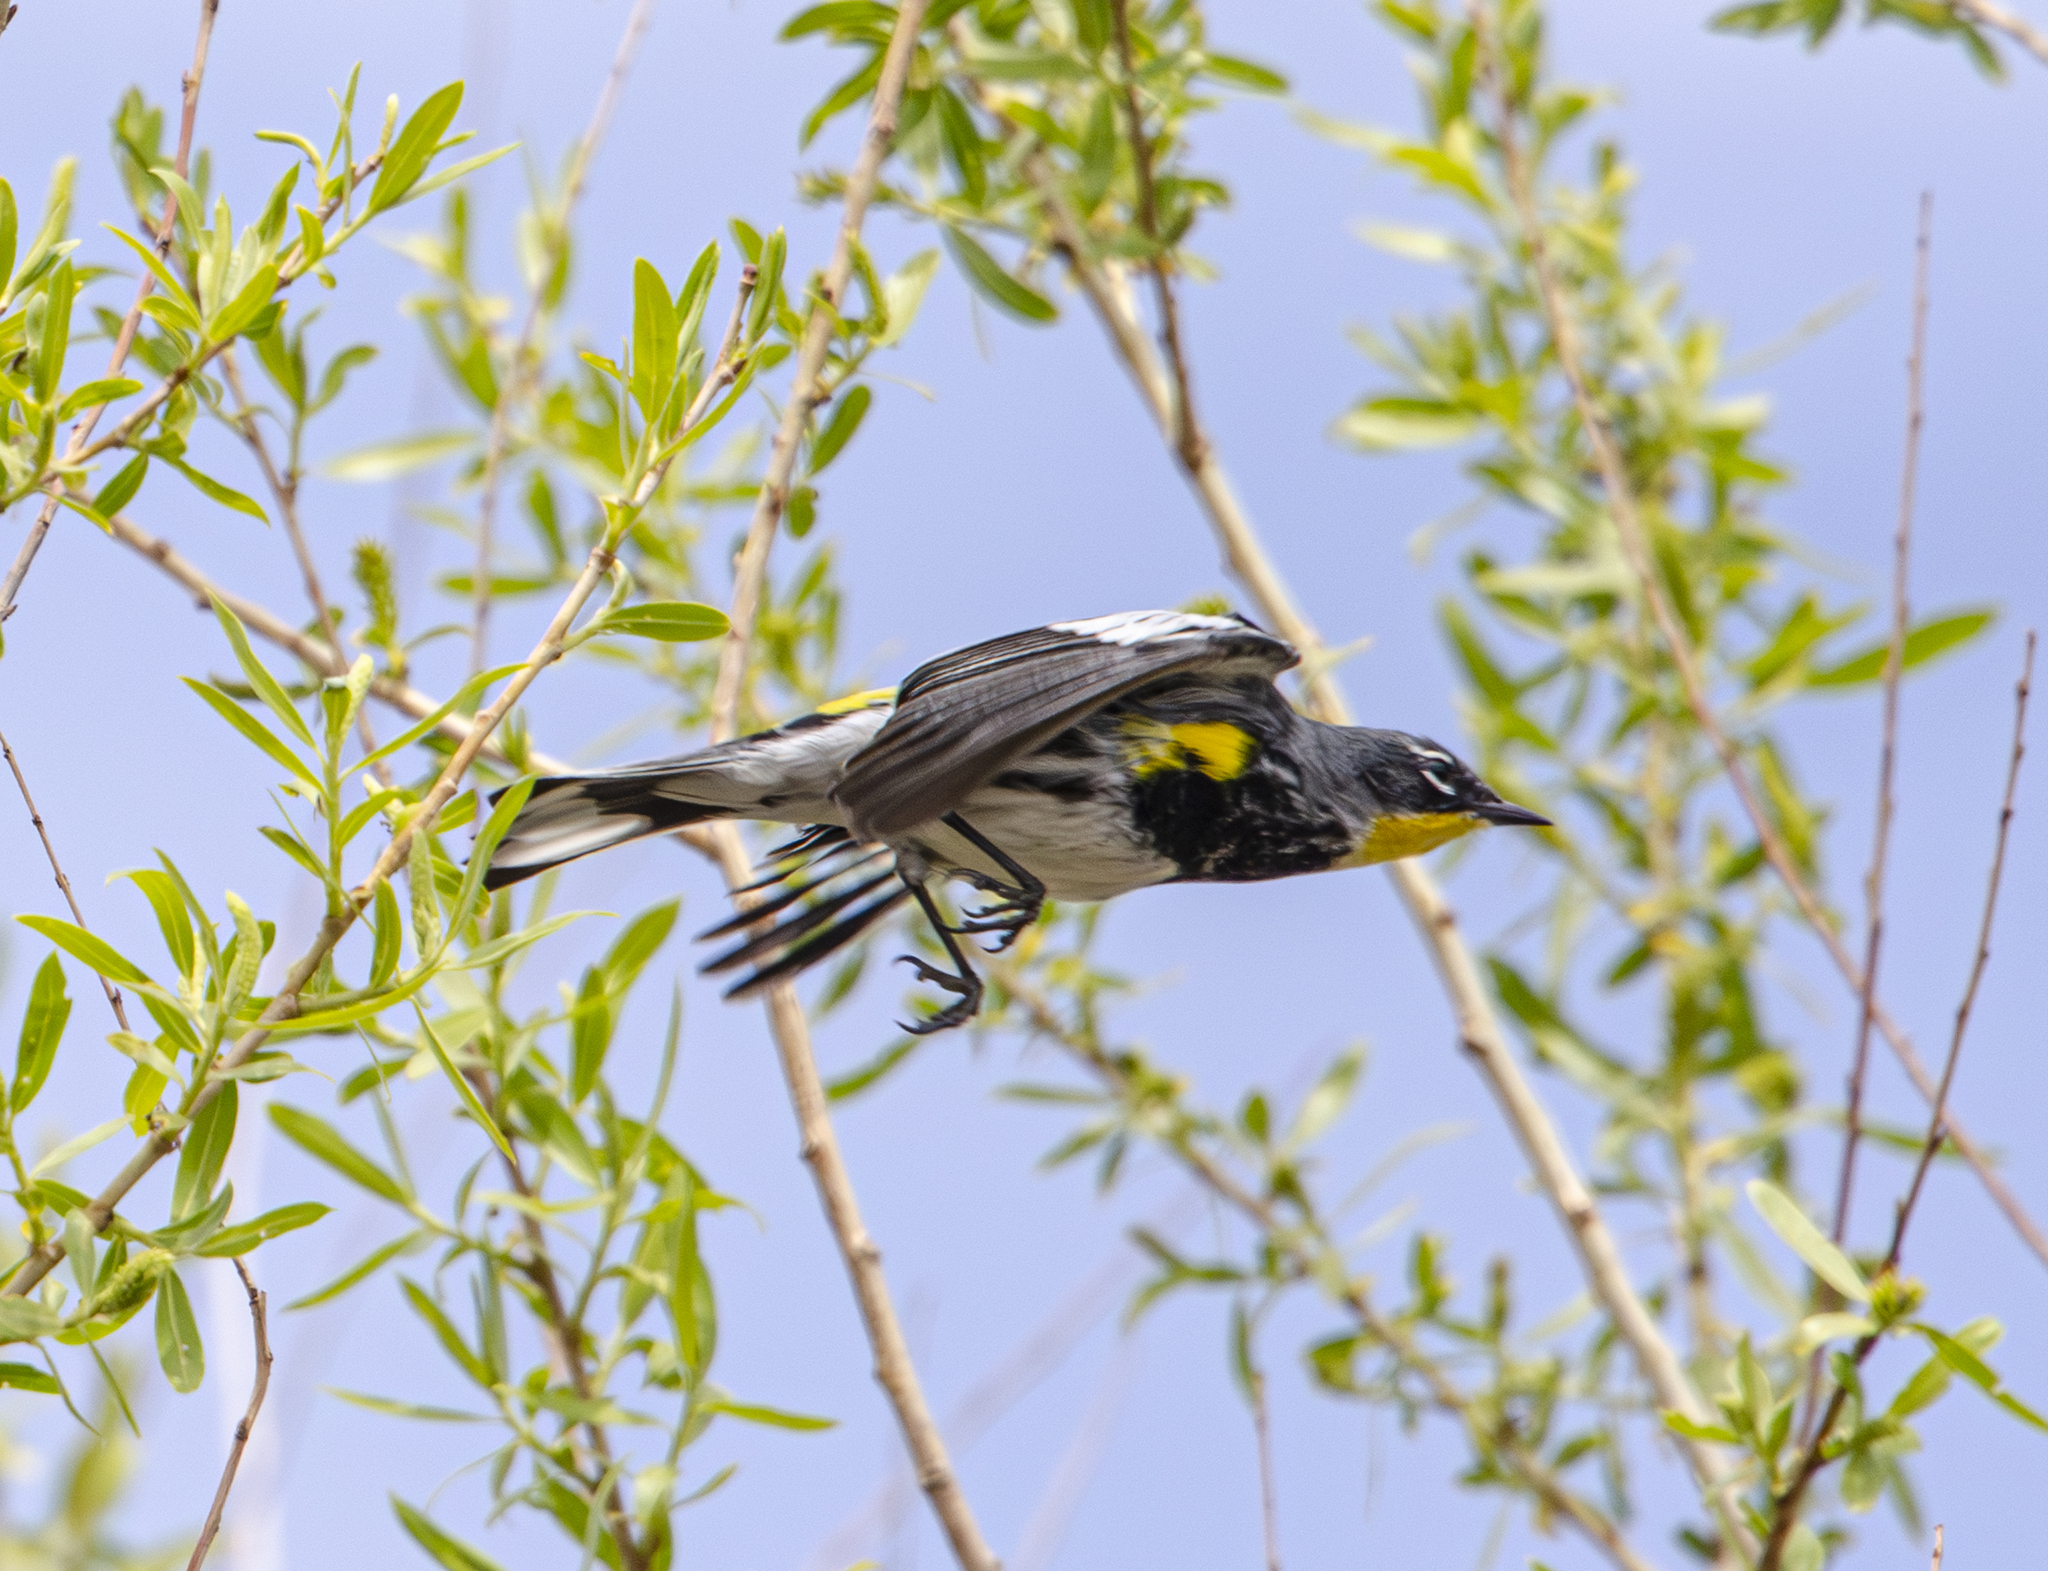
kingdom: Animalia
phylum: Chordata
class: Aves
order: Passeriformes
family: Parulidae
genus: Setophaga
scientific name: Setophaga coronata
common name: Myrtle warbler
